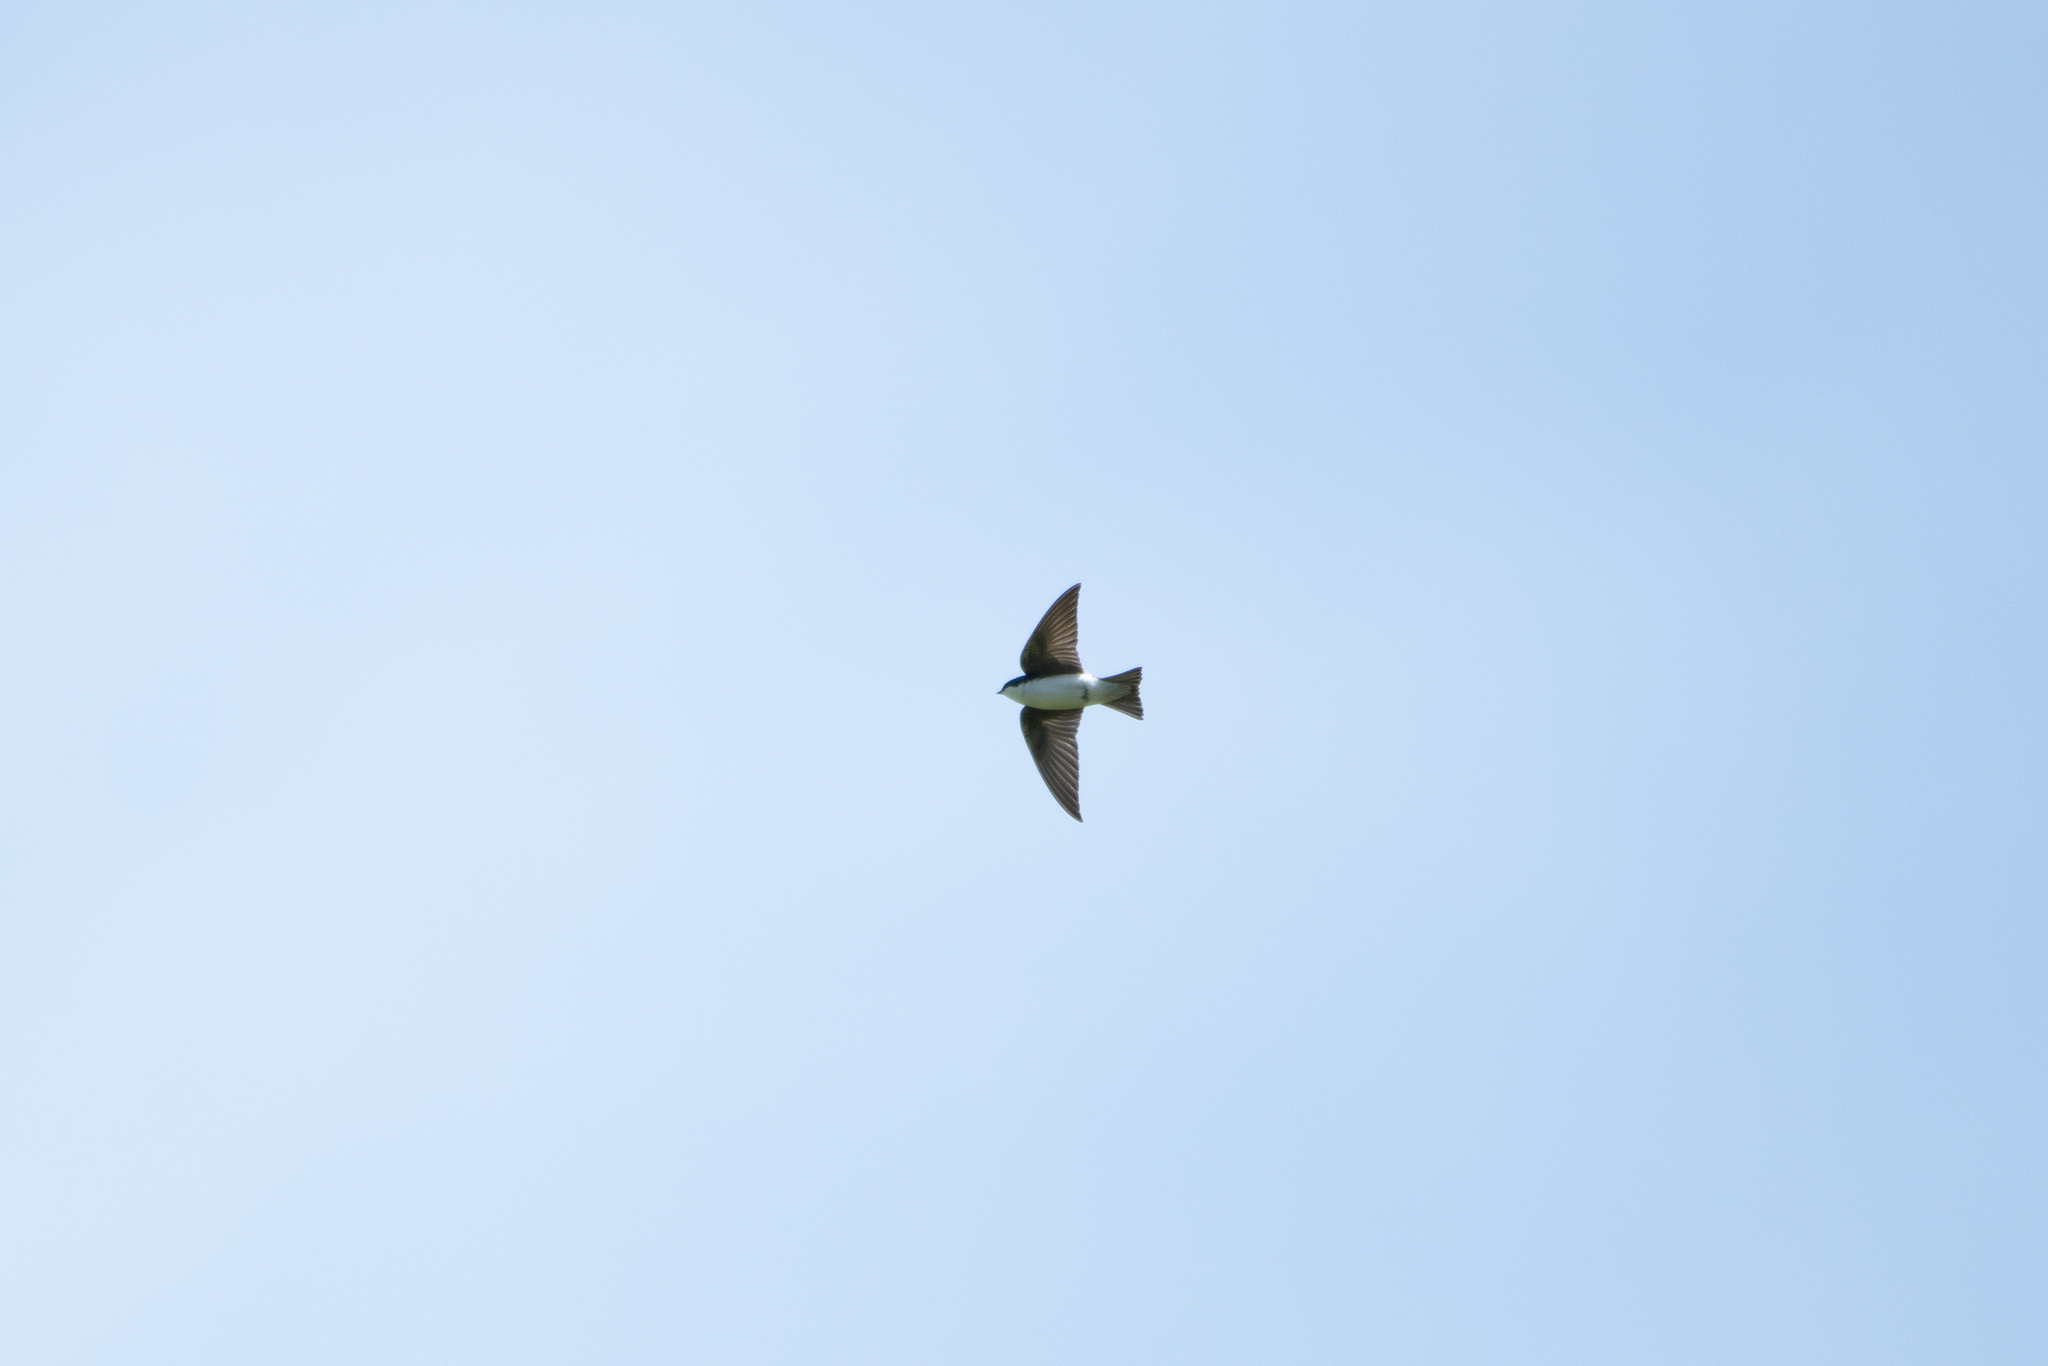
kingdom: Animalia
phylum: Chordata
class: Aves
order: Passeriformes
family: Hirundinidae
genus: Tachycineta
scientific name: Tachycineta bicolor
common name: Tree swallow
